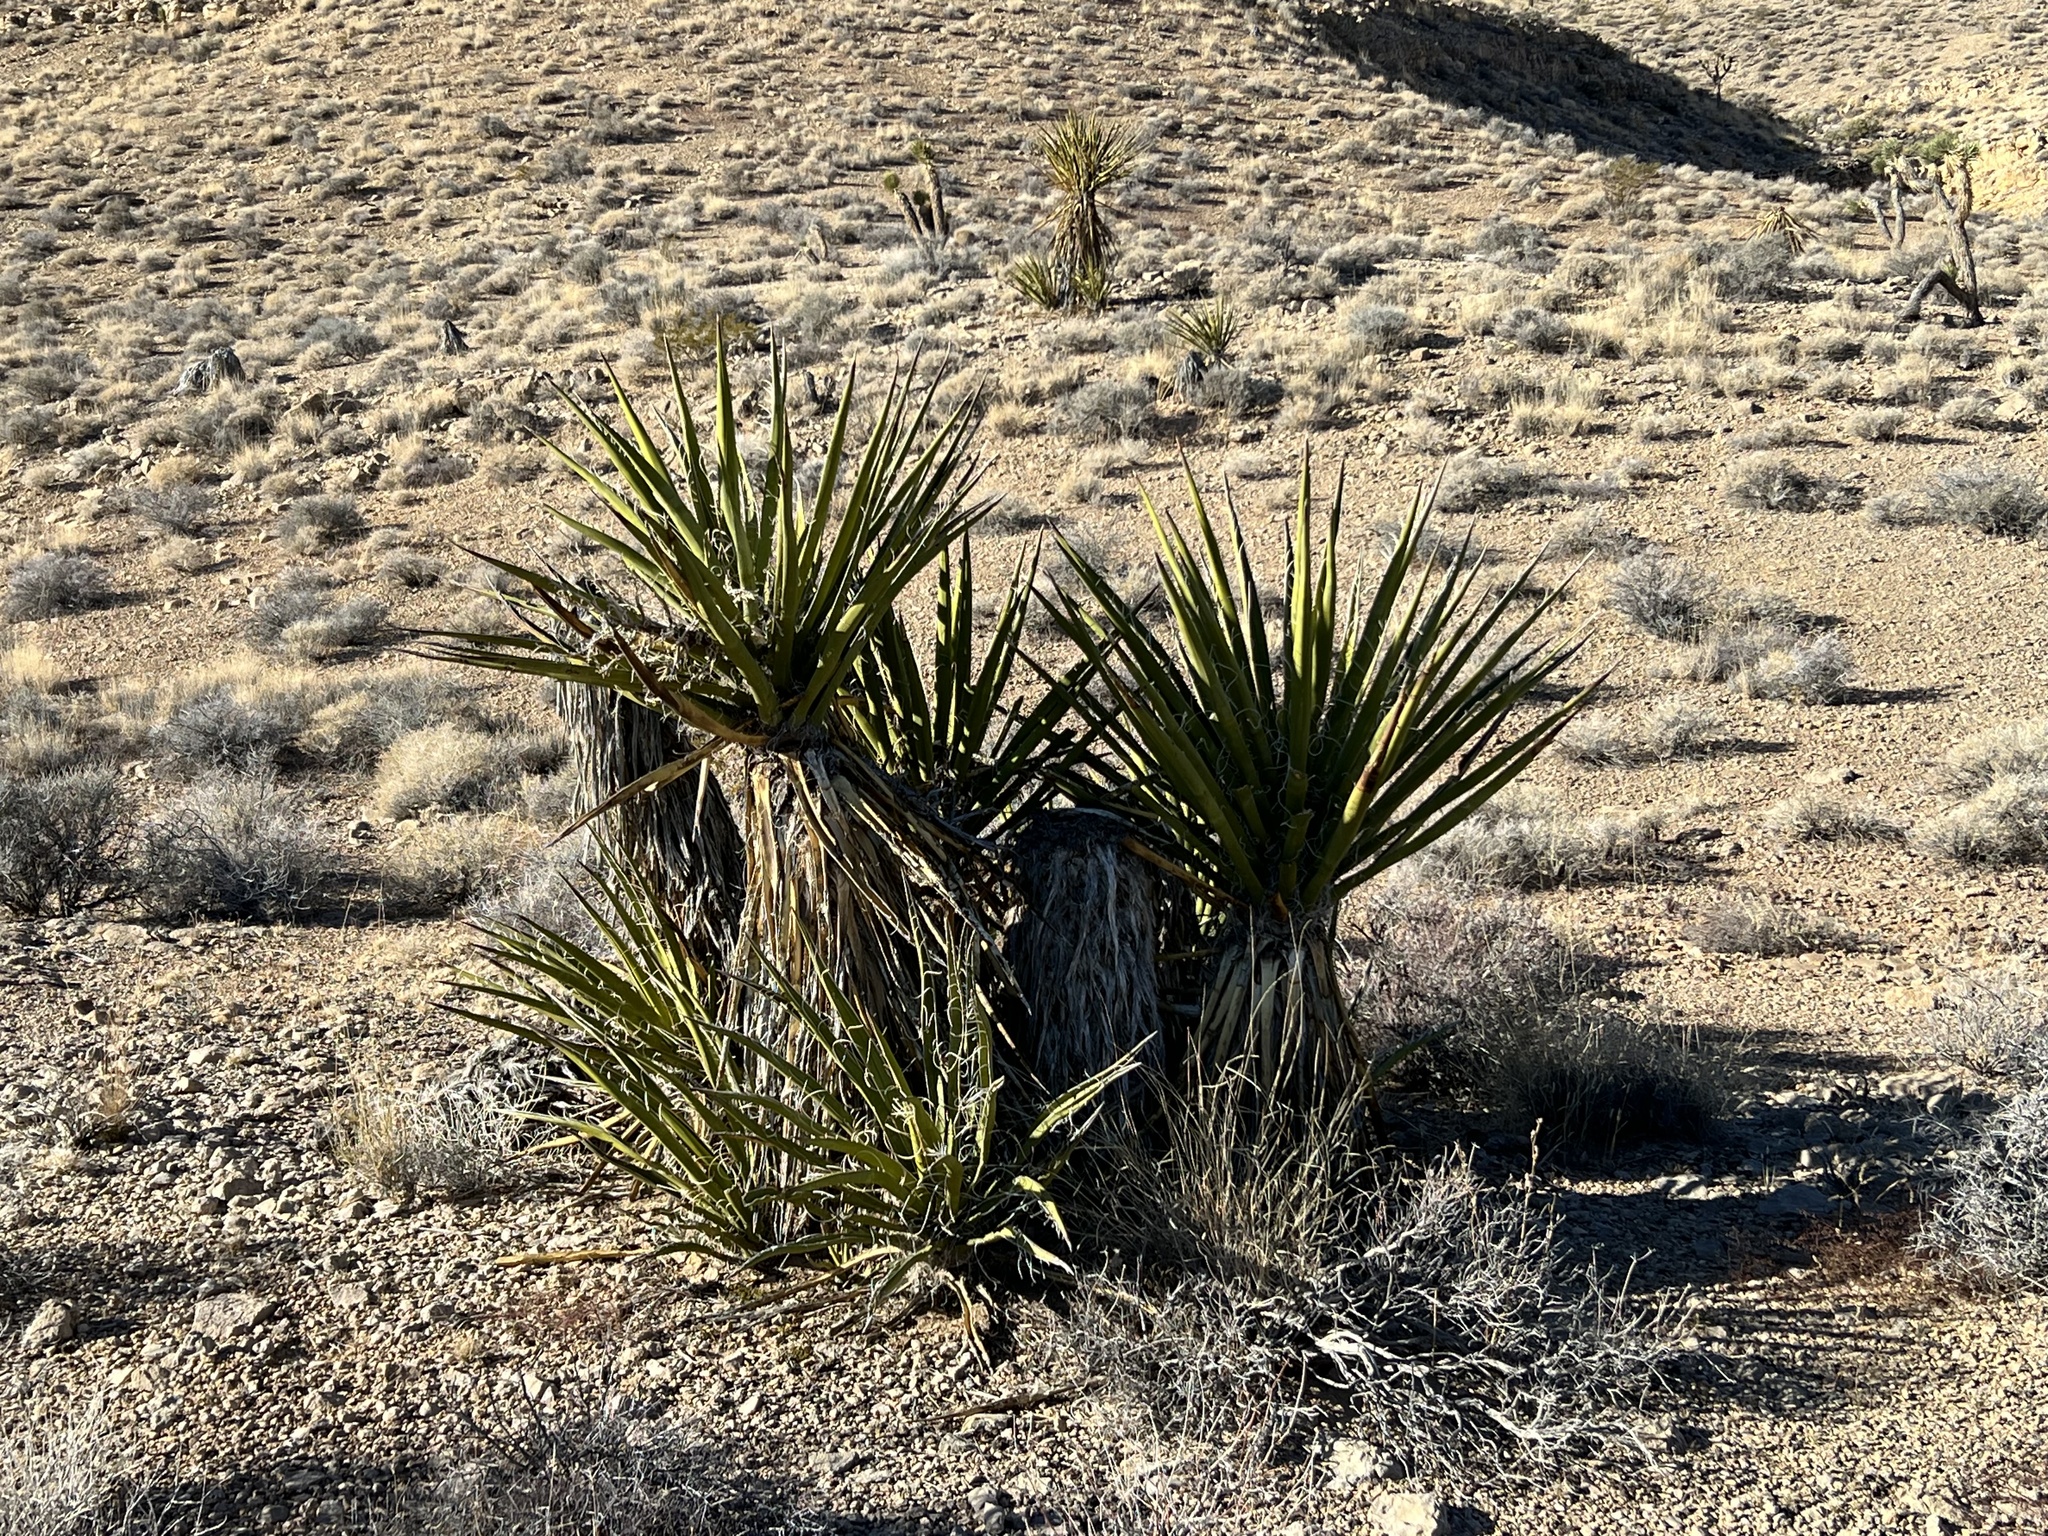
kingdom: Plantae
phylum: Tracheophyta
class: Liliopsida
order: Asparagales
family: Asparagaceae
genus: Yucca
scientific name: Yucca schidigera
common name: Mojave yucca
